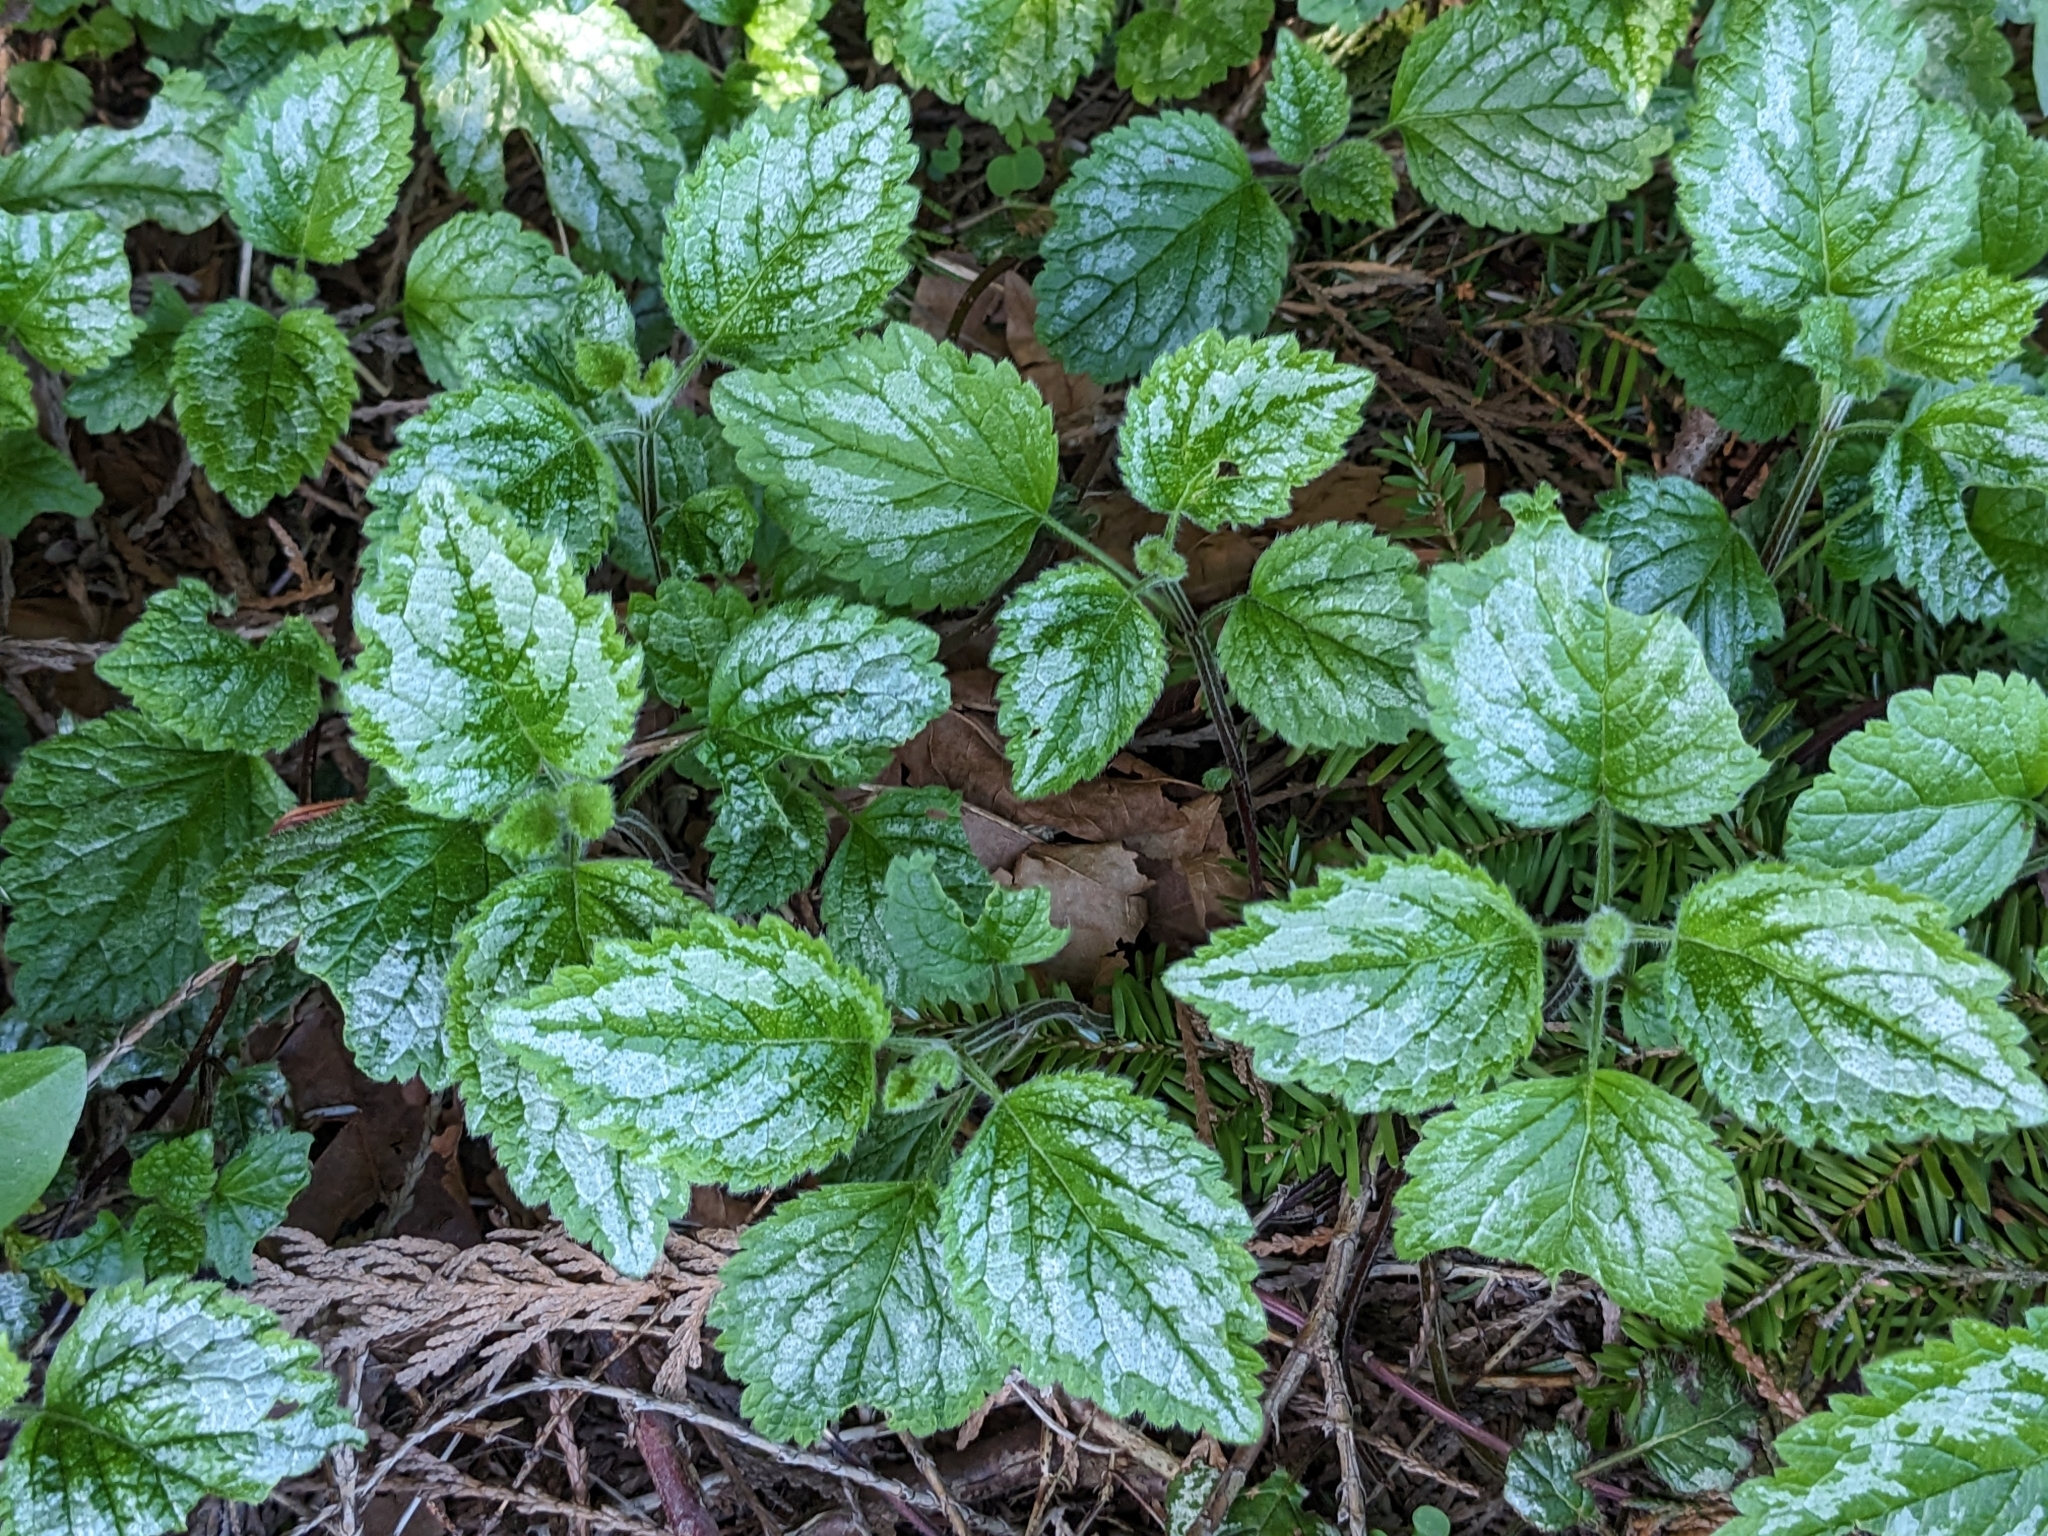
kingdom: Plantae
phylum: Tracheophyta
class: Magnoliopsida
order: Lamiales
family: Lamiaceae
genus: Lamium
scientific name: Lamium galeobdolon
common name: Yellow archangel
